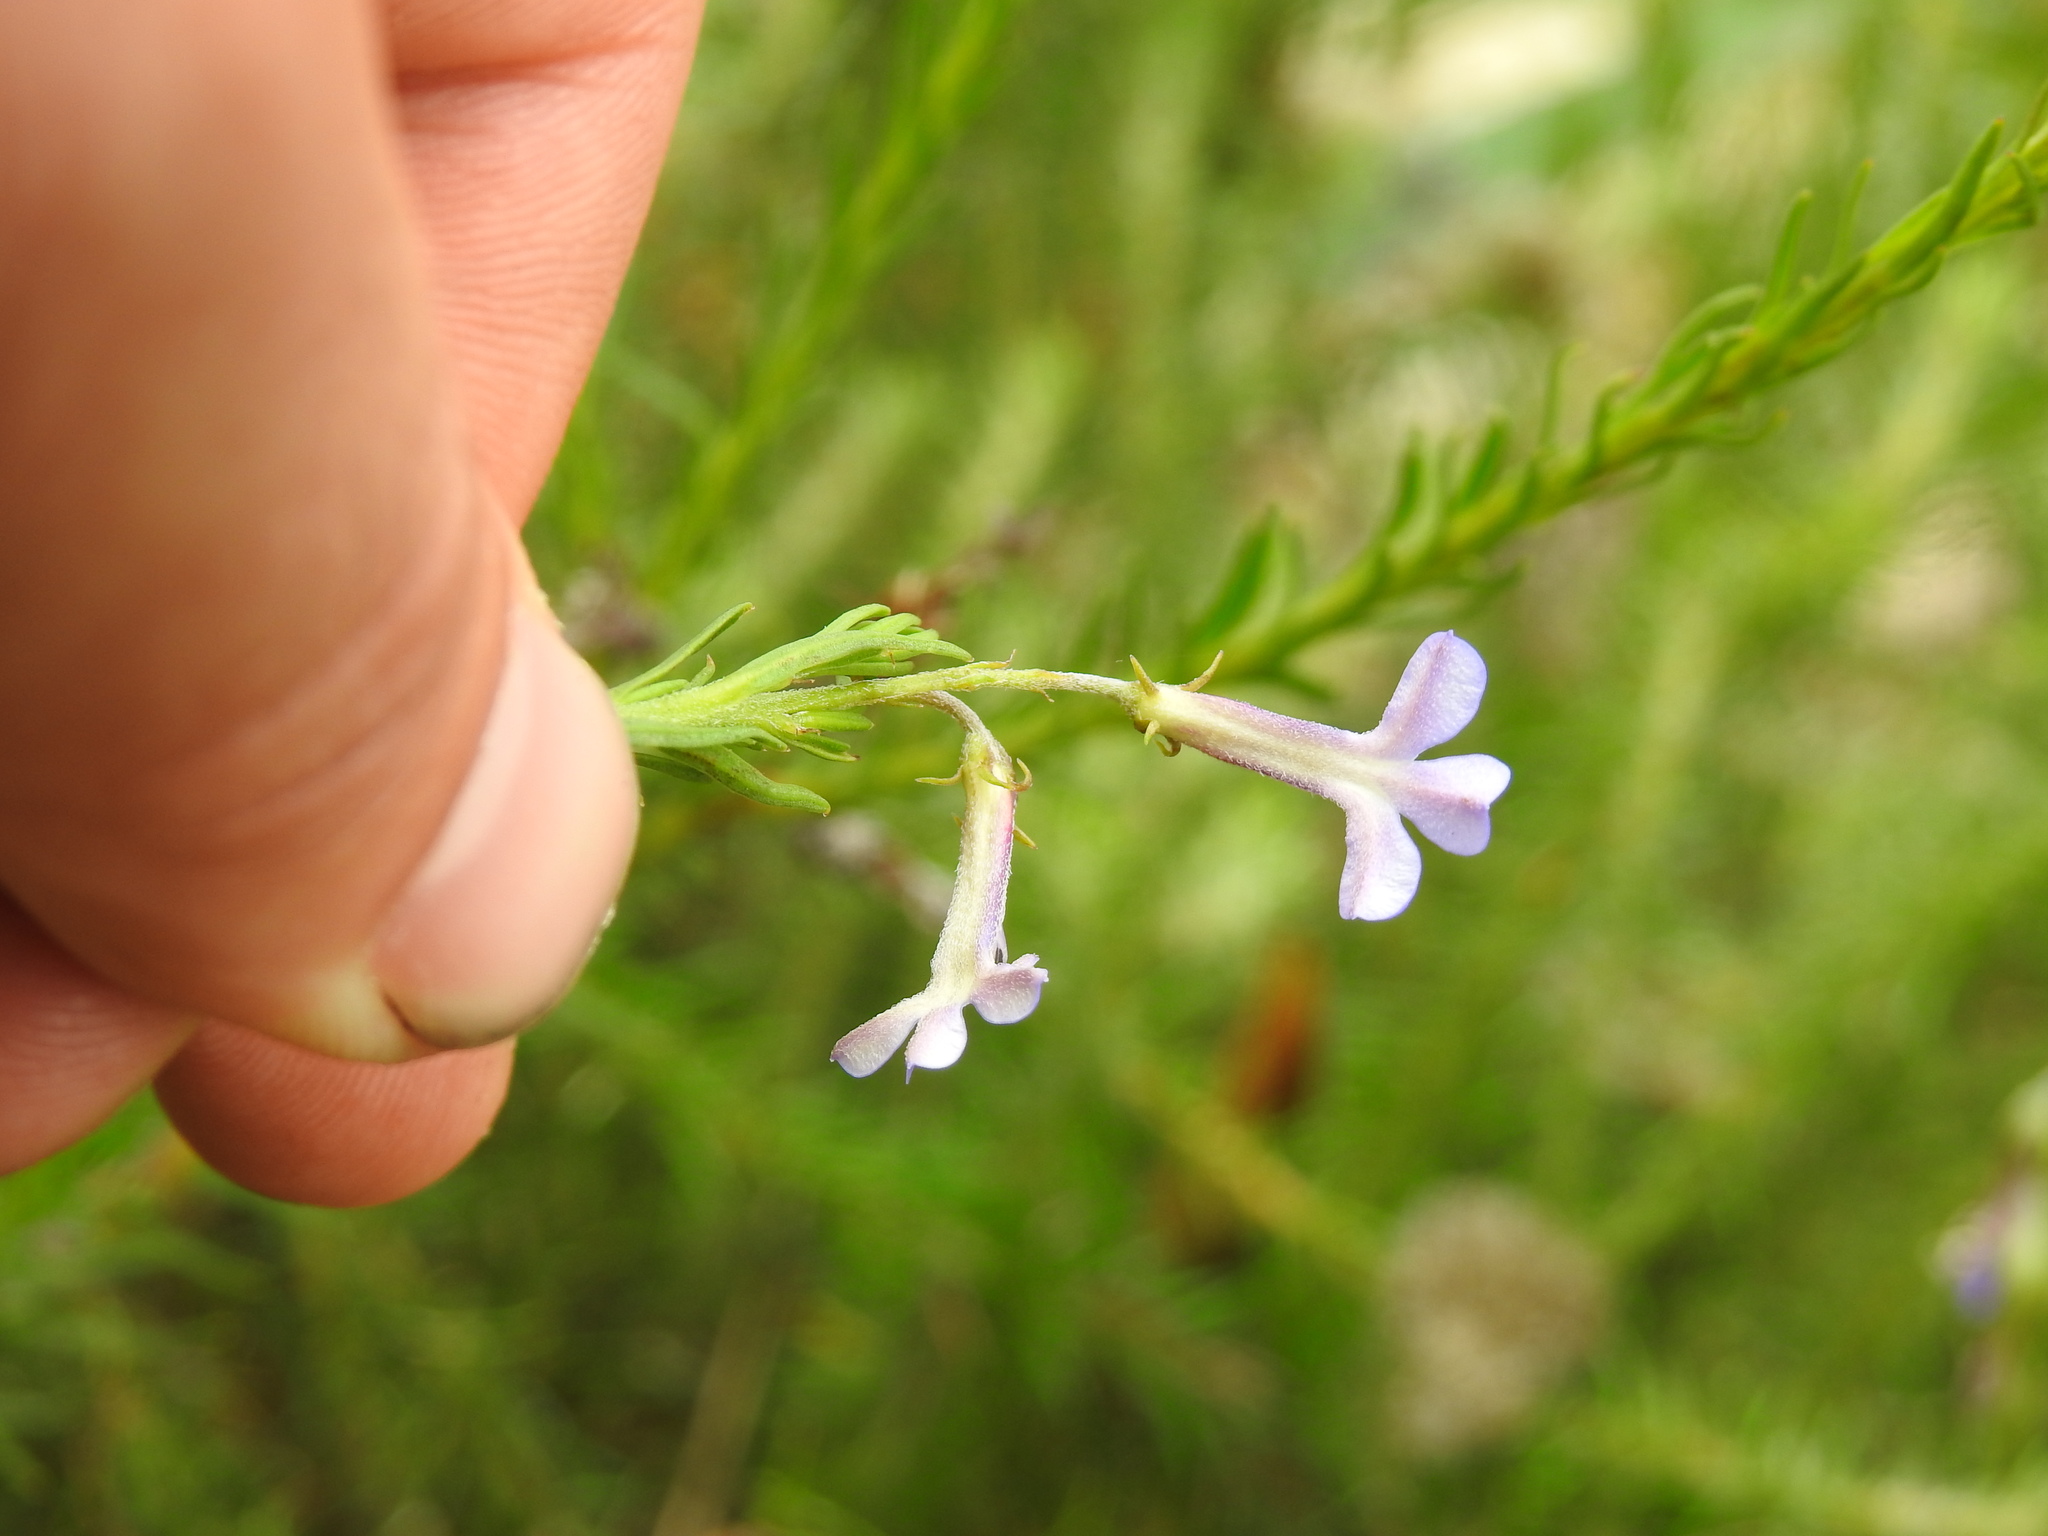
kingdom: Plantae
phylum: Tracheophyta
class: Magnoliopsida
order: Asterales
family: Campanulaceae
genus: Lobelia
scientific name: Lobelia pinifolia
